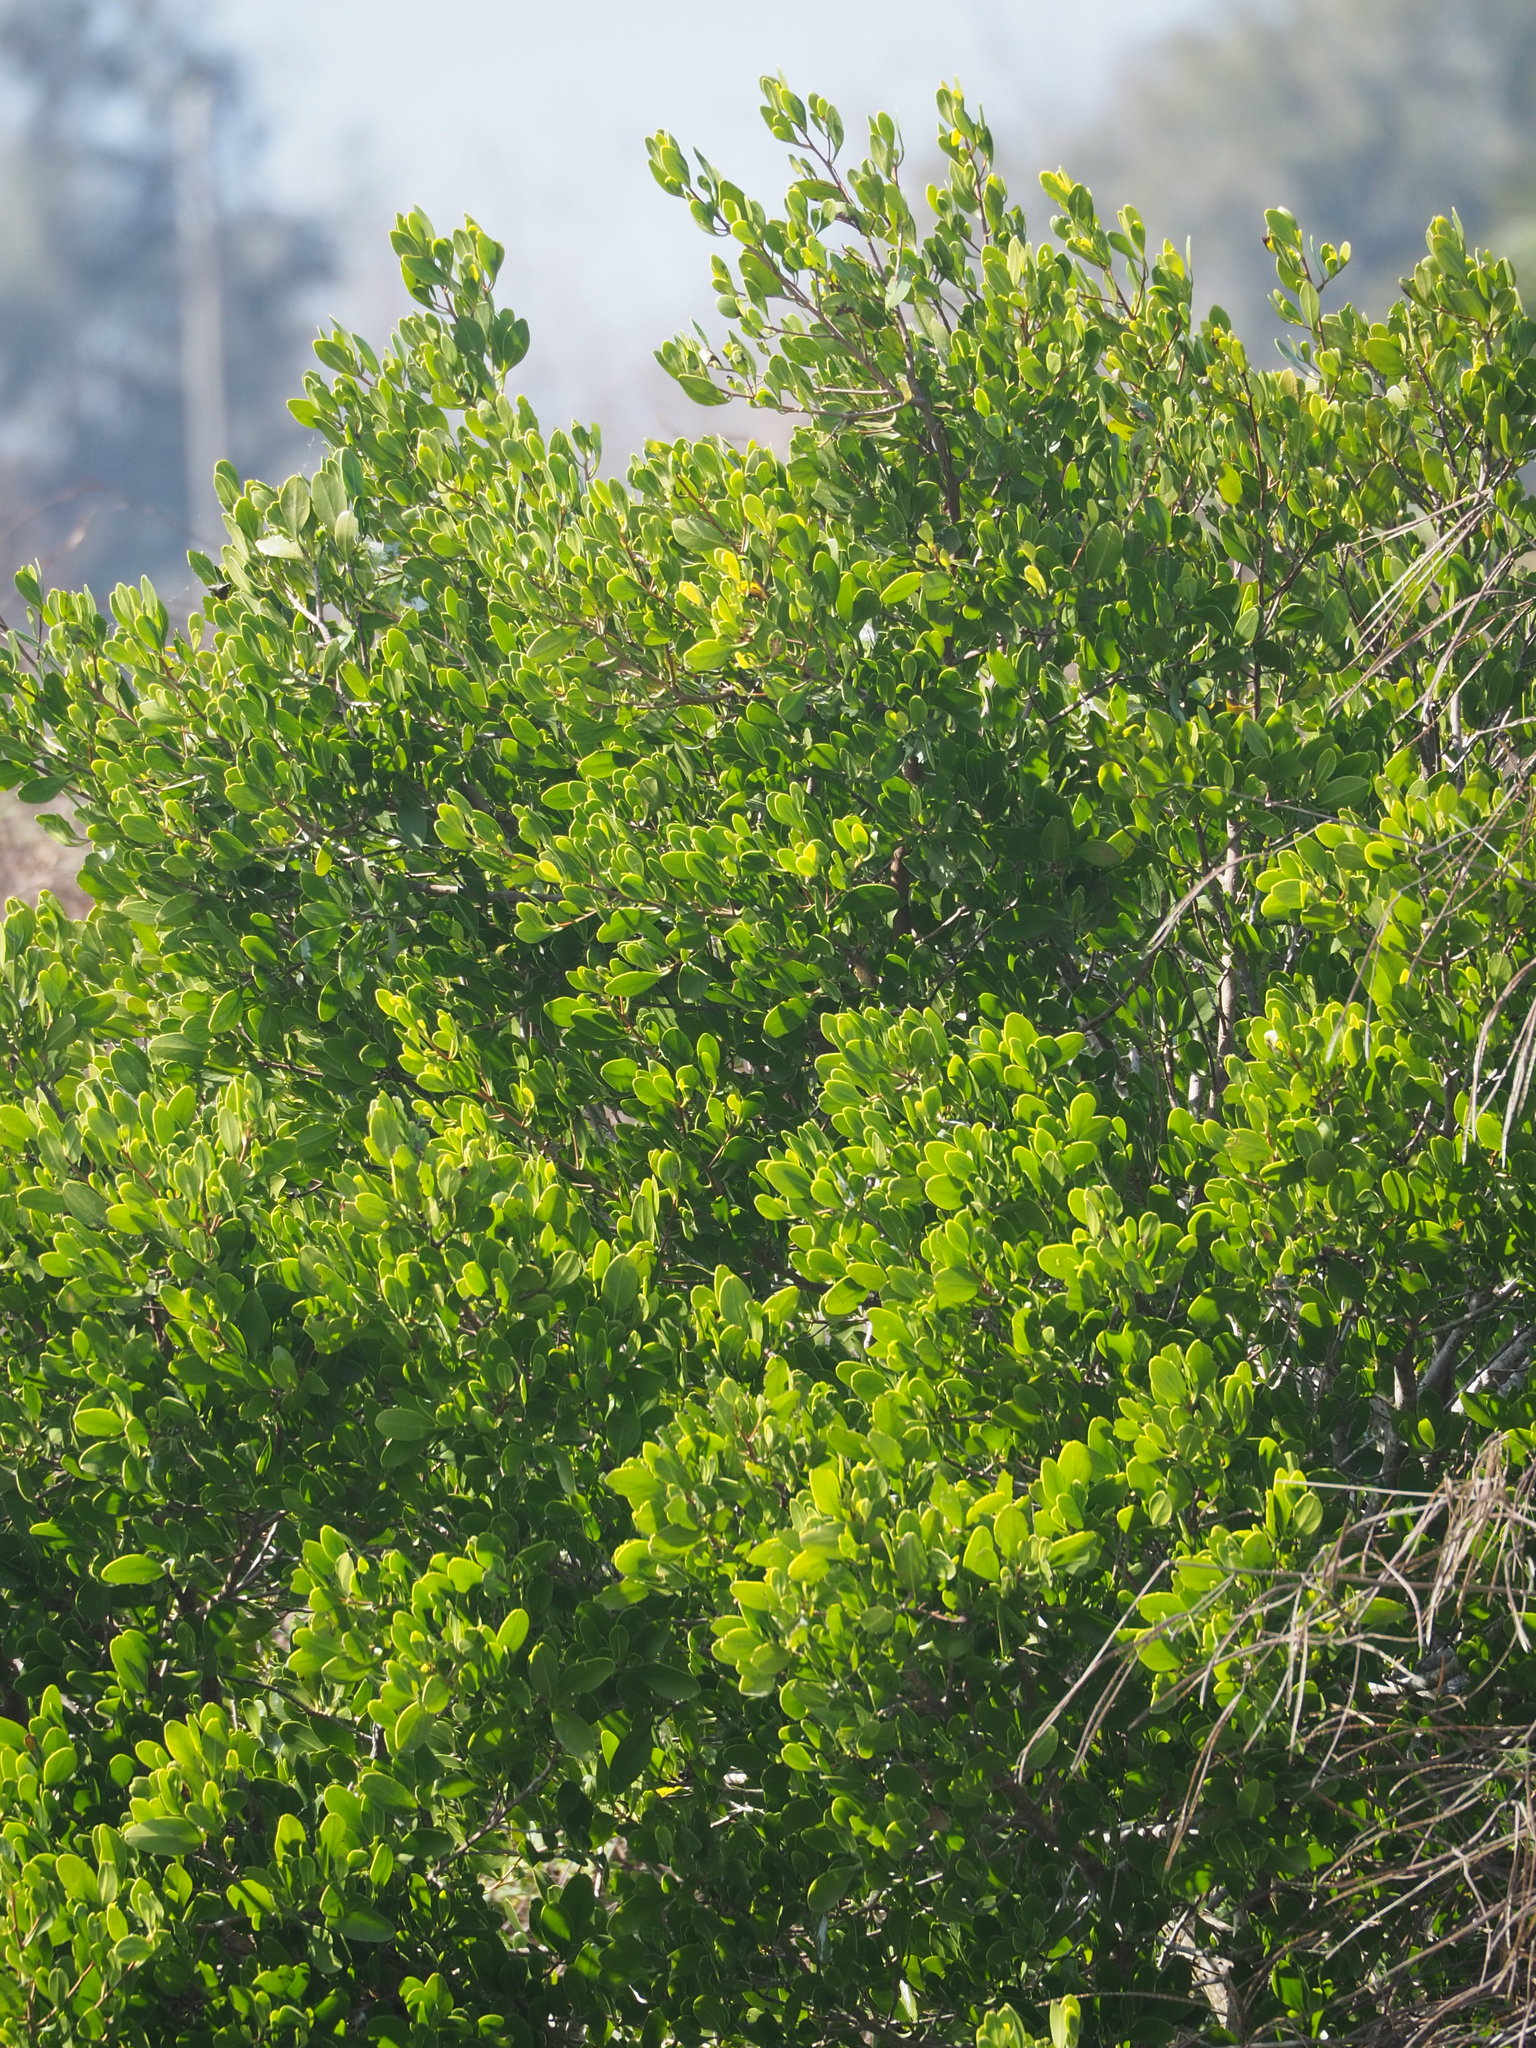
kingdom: Plantae
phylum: Tracheophyta
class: Magnoliopsida
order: Myrtales
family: Combretaceae
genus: Lumnitzera
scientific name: Lumnitzera racemosa
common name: White-flowered black mangrove
